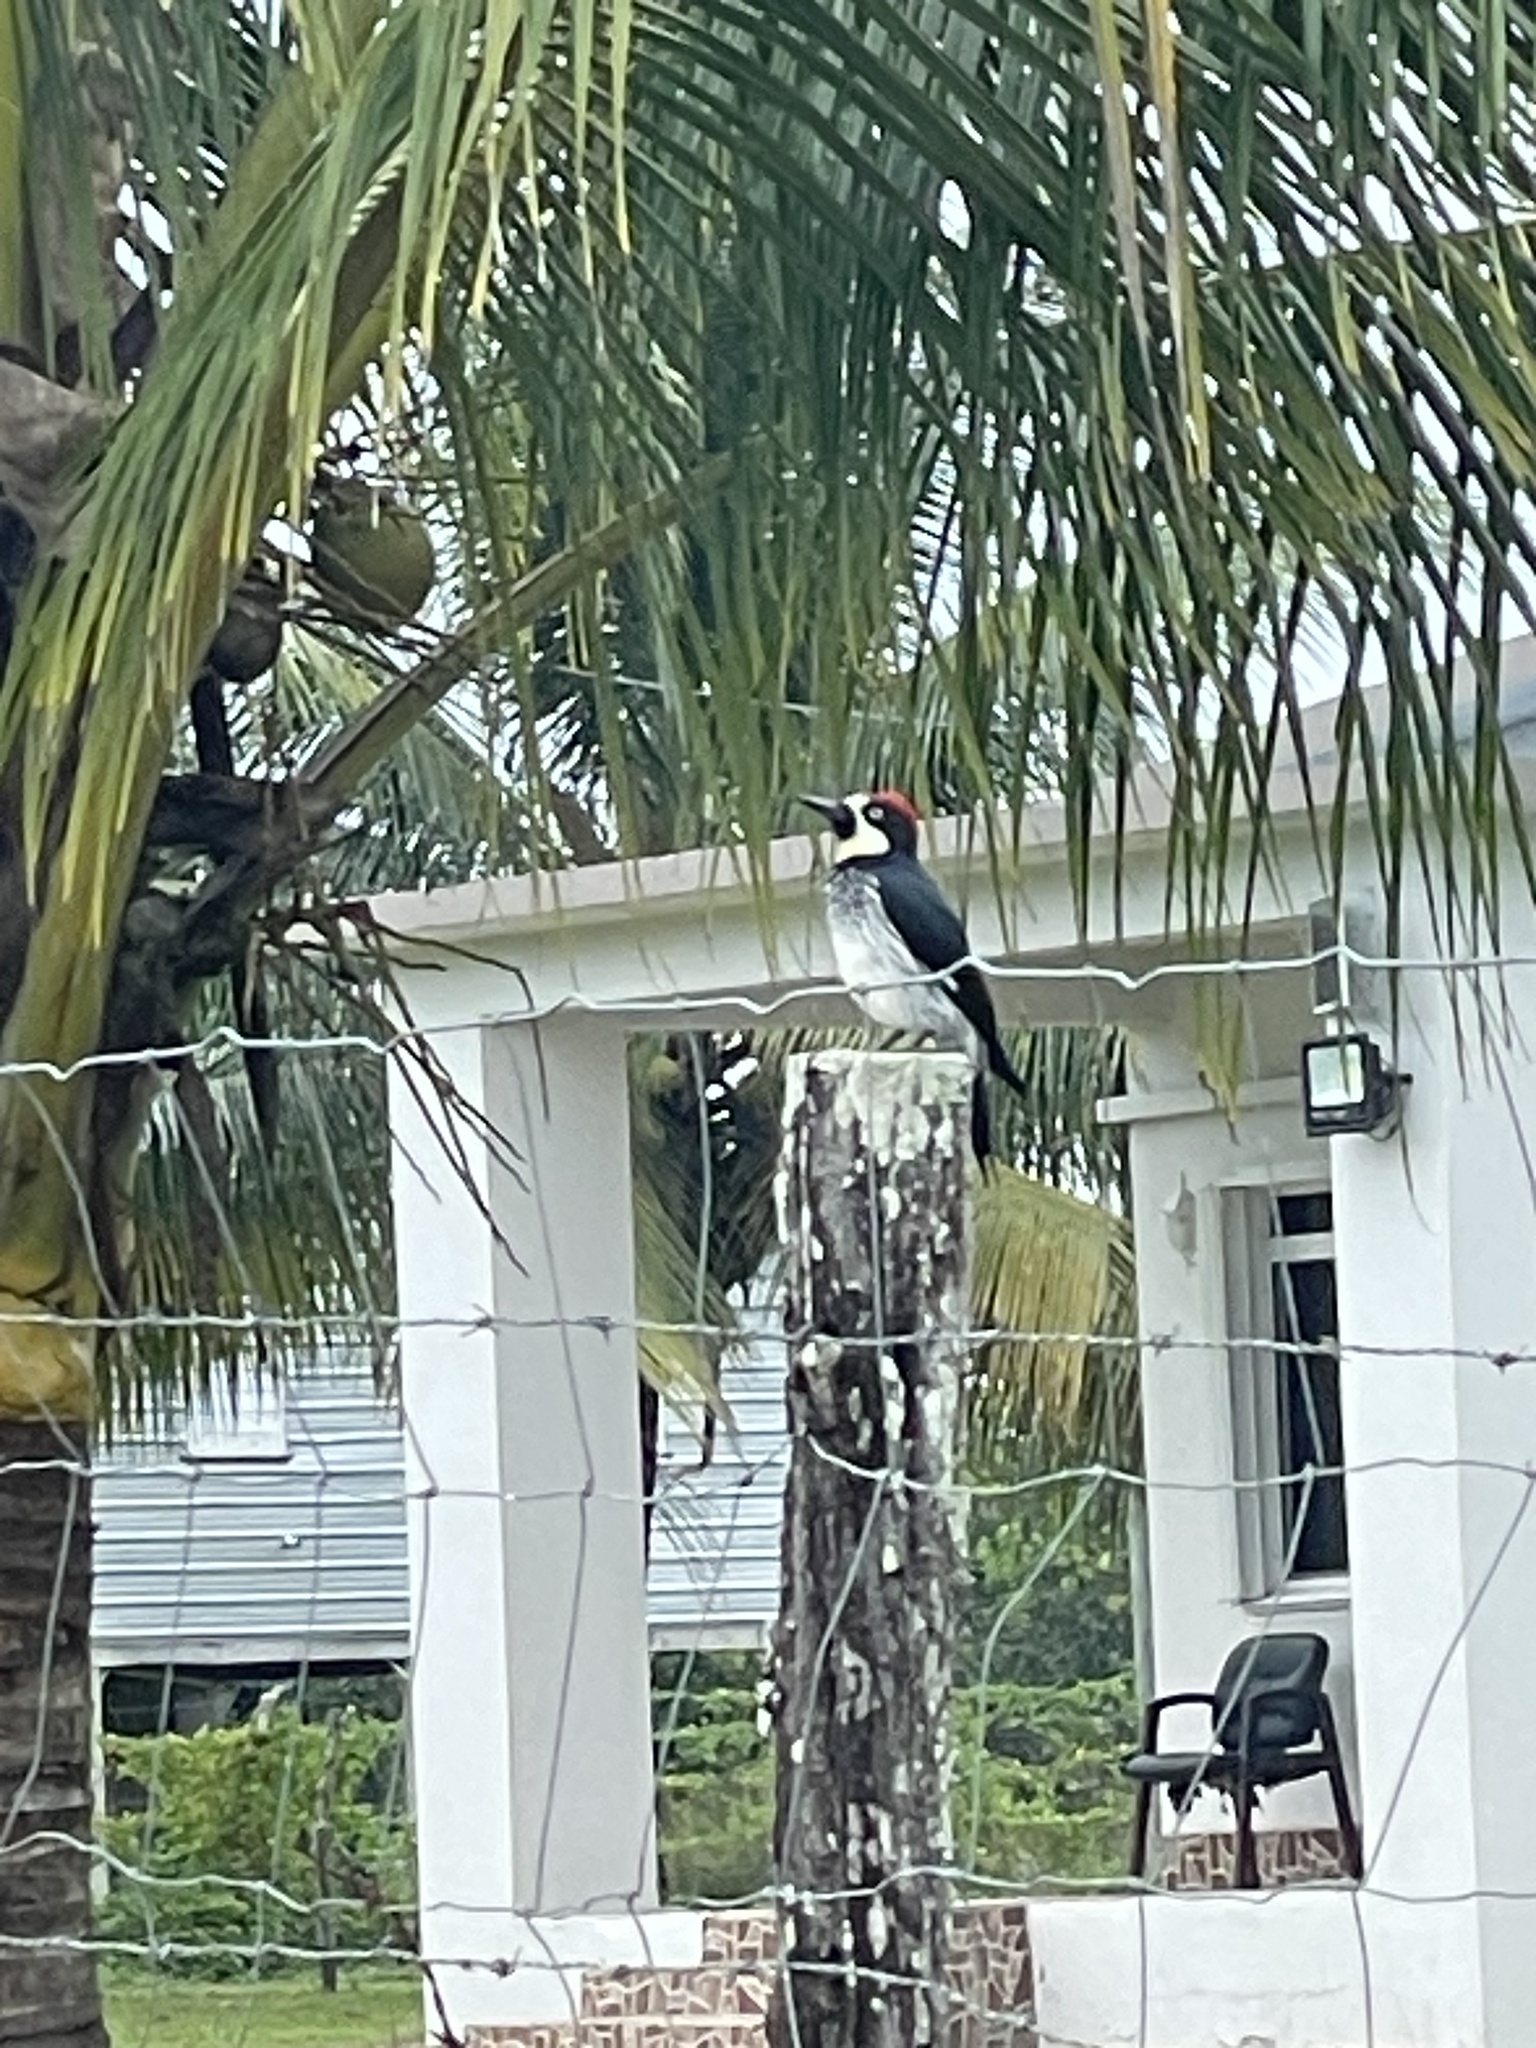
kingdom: Animalia
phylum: Chordata
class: Aves
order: Piciformes
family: Picidae
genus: Melanerpes
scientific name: Melanerpes formicivorus
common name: Acorn woodpecker
